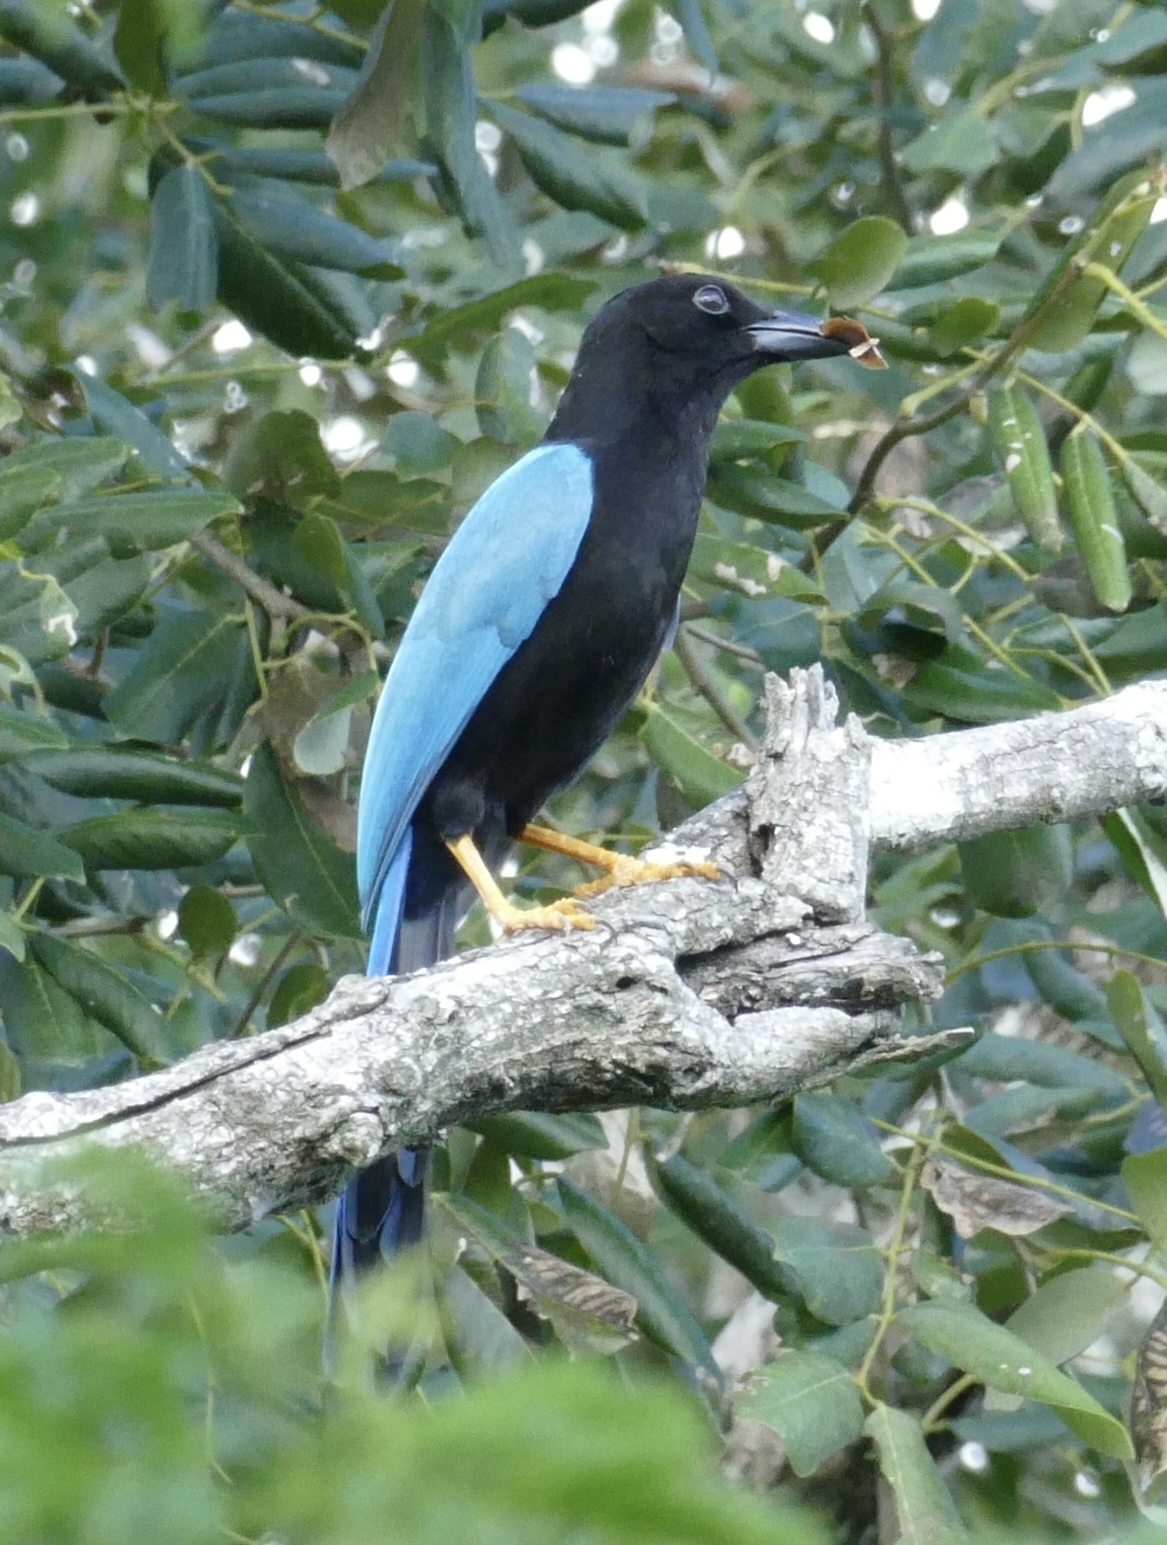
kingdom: Animalia
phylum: Chordata
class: Aves
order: Passeriformes
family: Corvidae
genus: Cyanocorax
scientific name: Cyanocorax yucatanicus
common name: Yucatan jay
